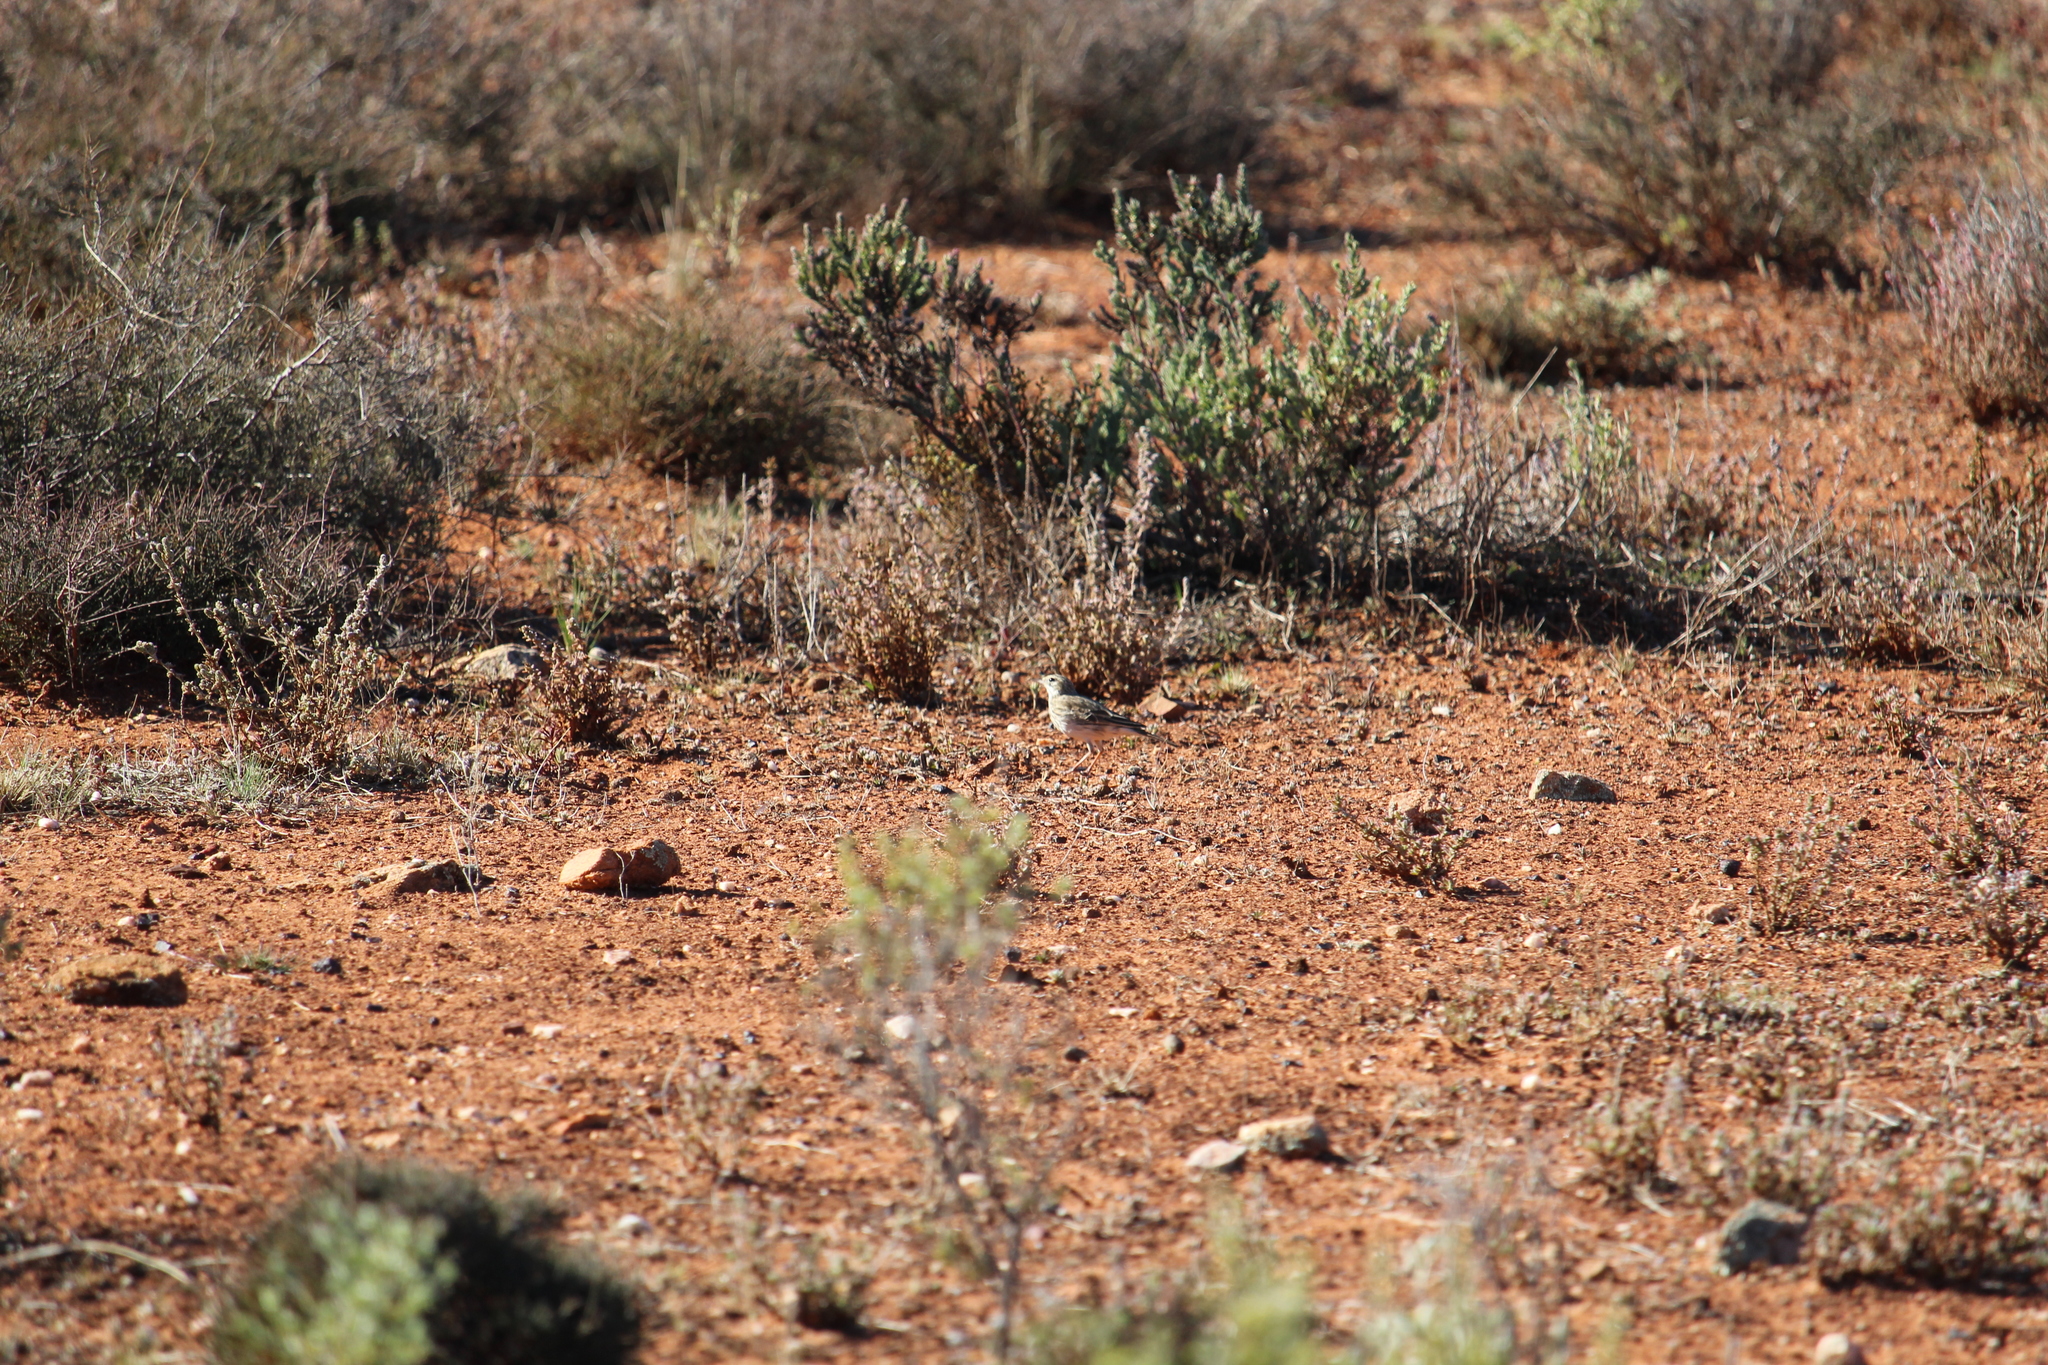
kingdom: Animalia
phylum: Chordata
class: Aves
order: Passeriformes
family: Motacillidae
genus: Anthus
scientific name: Anthus australis
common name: Australian pipit
